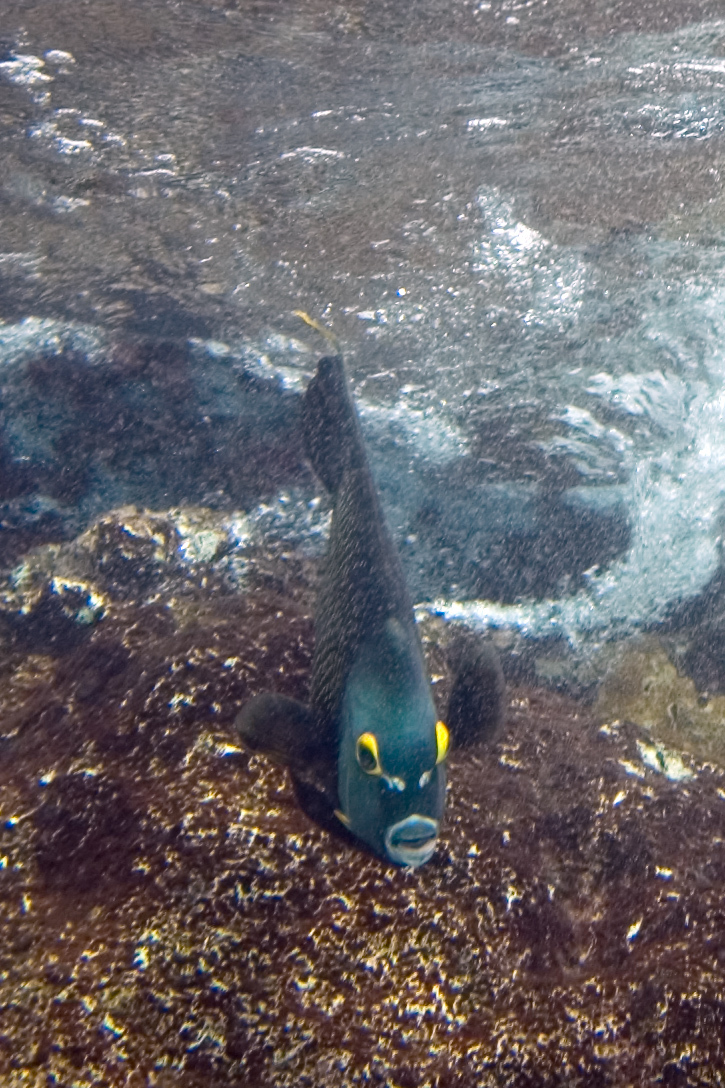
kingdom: Animalia
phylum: Chordata
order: Perciformes
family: Pomacanthidae
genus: Pomacanthus
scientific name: Pomacanthus paru
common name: French angelfish
